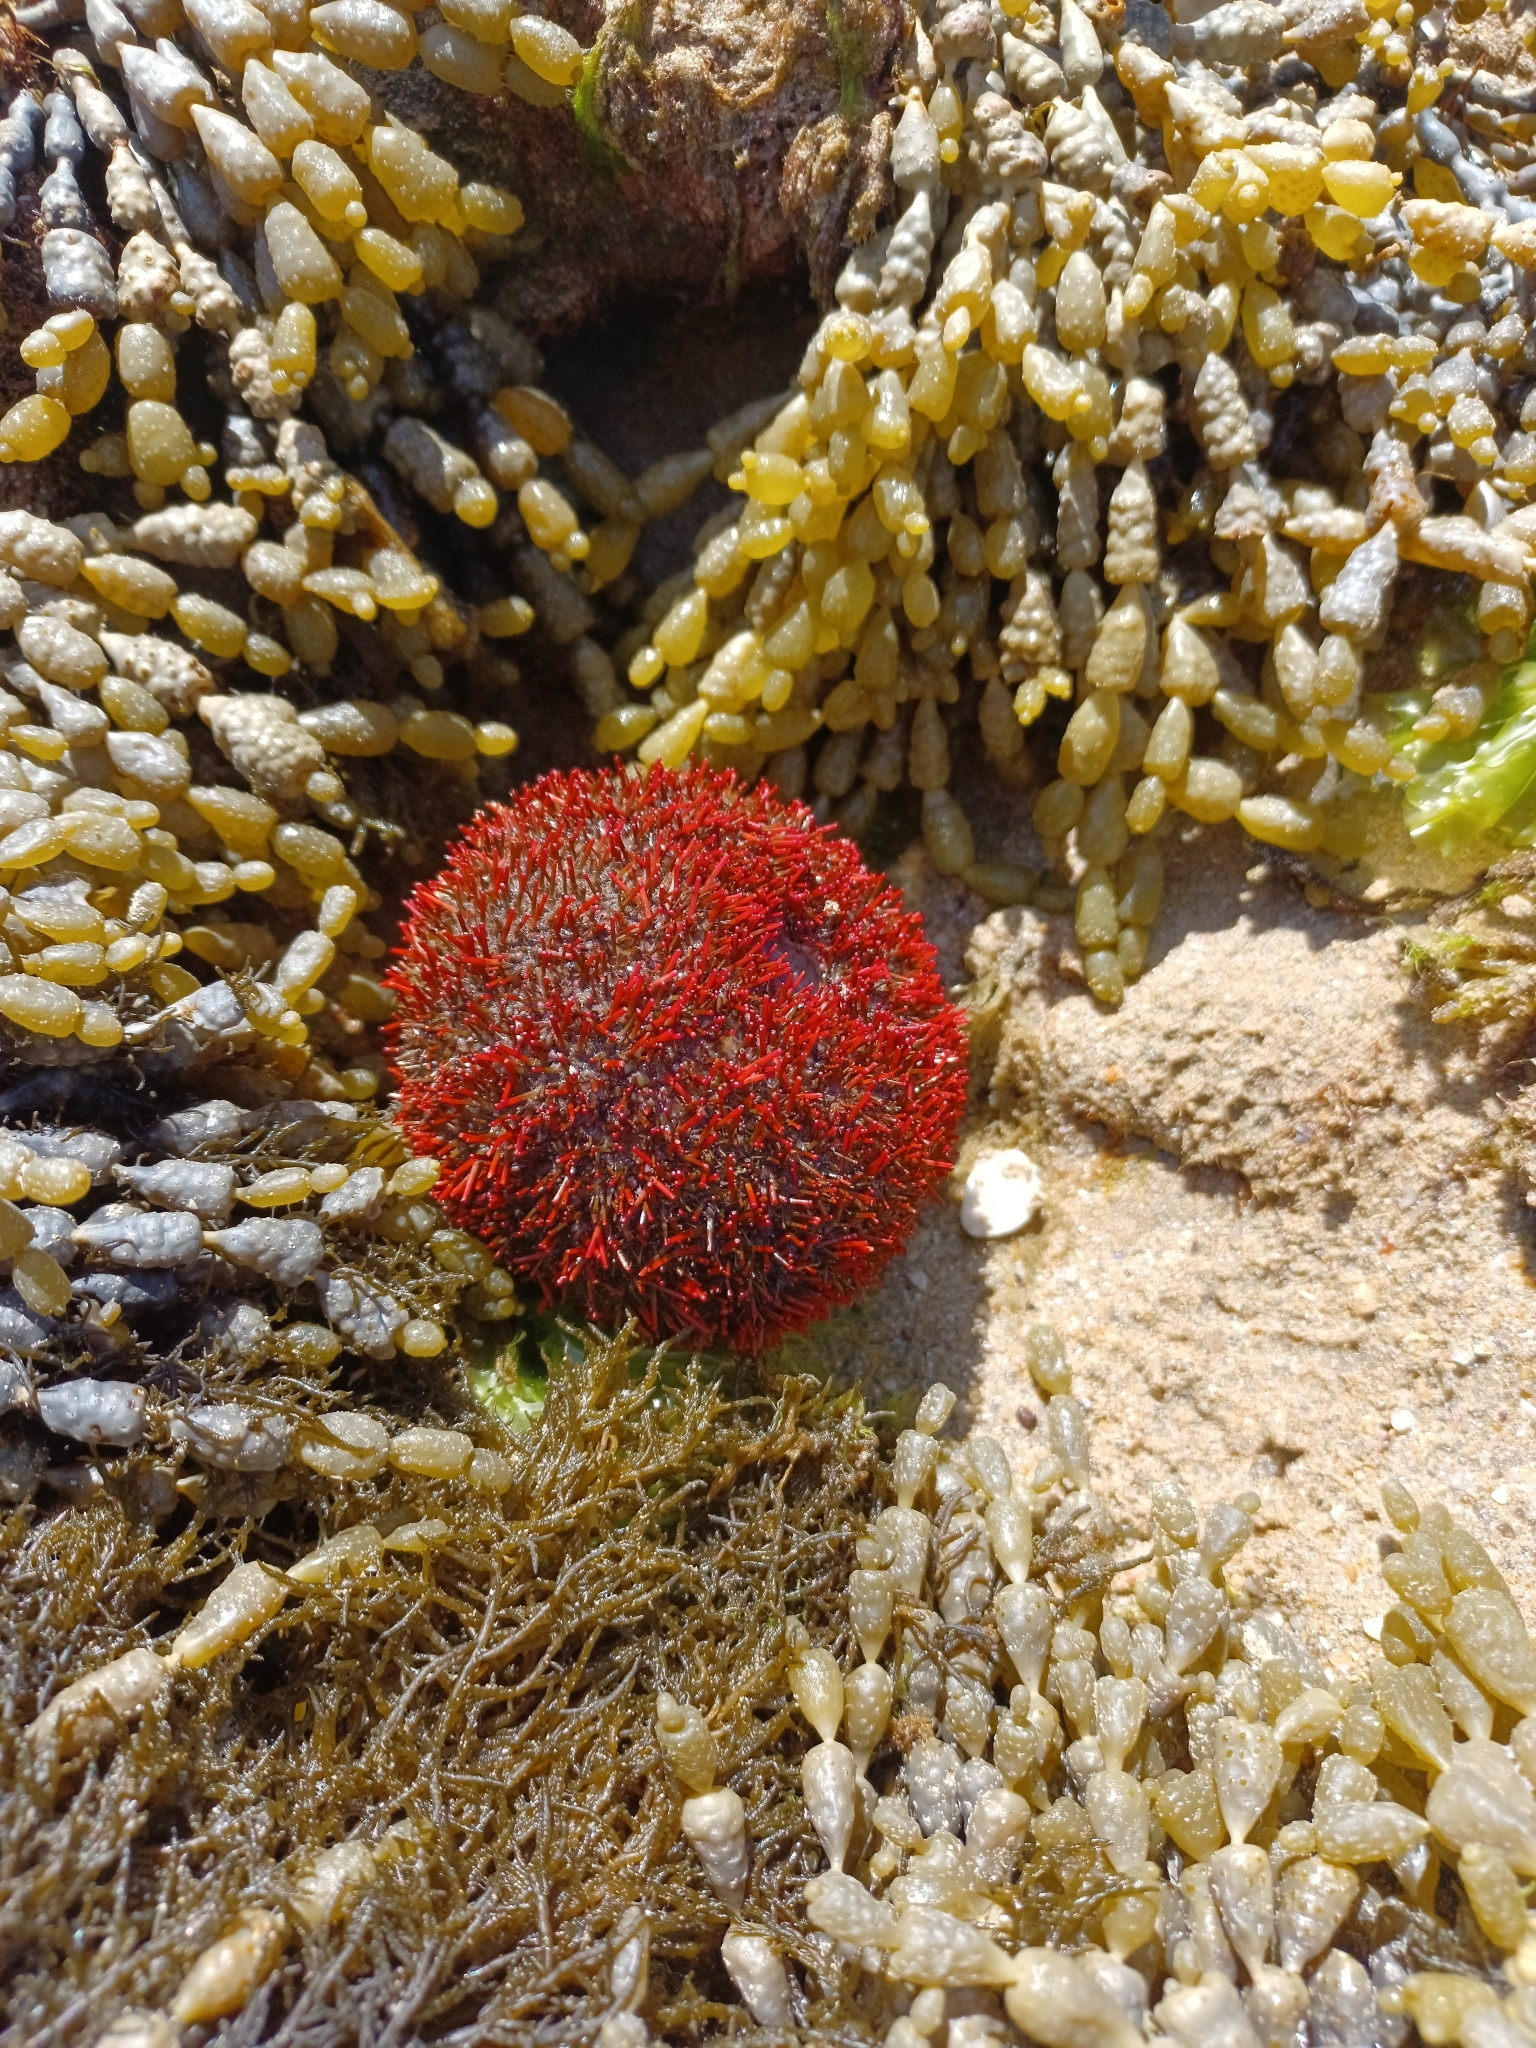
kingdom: Animalia
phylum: Echinodermata
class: Echinoidea
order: Camarodonta
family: Temnopleuridae
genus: Holopneustes
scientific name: Holopneustes porosissimus
